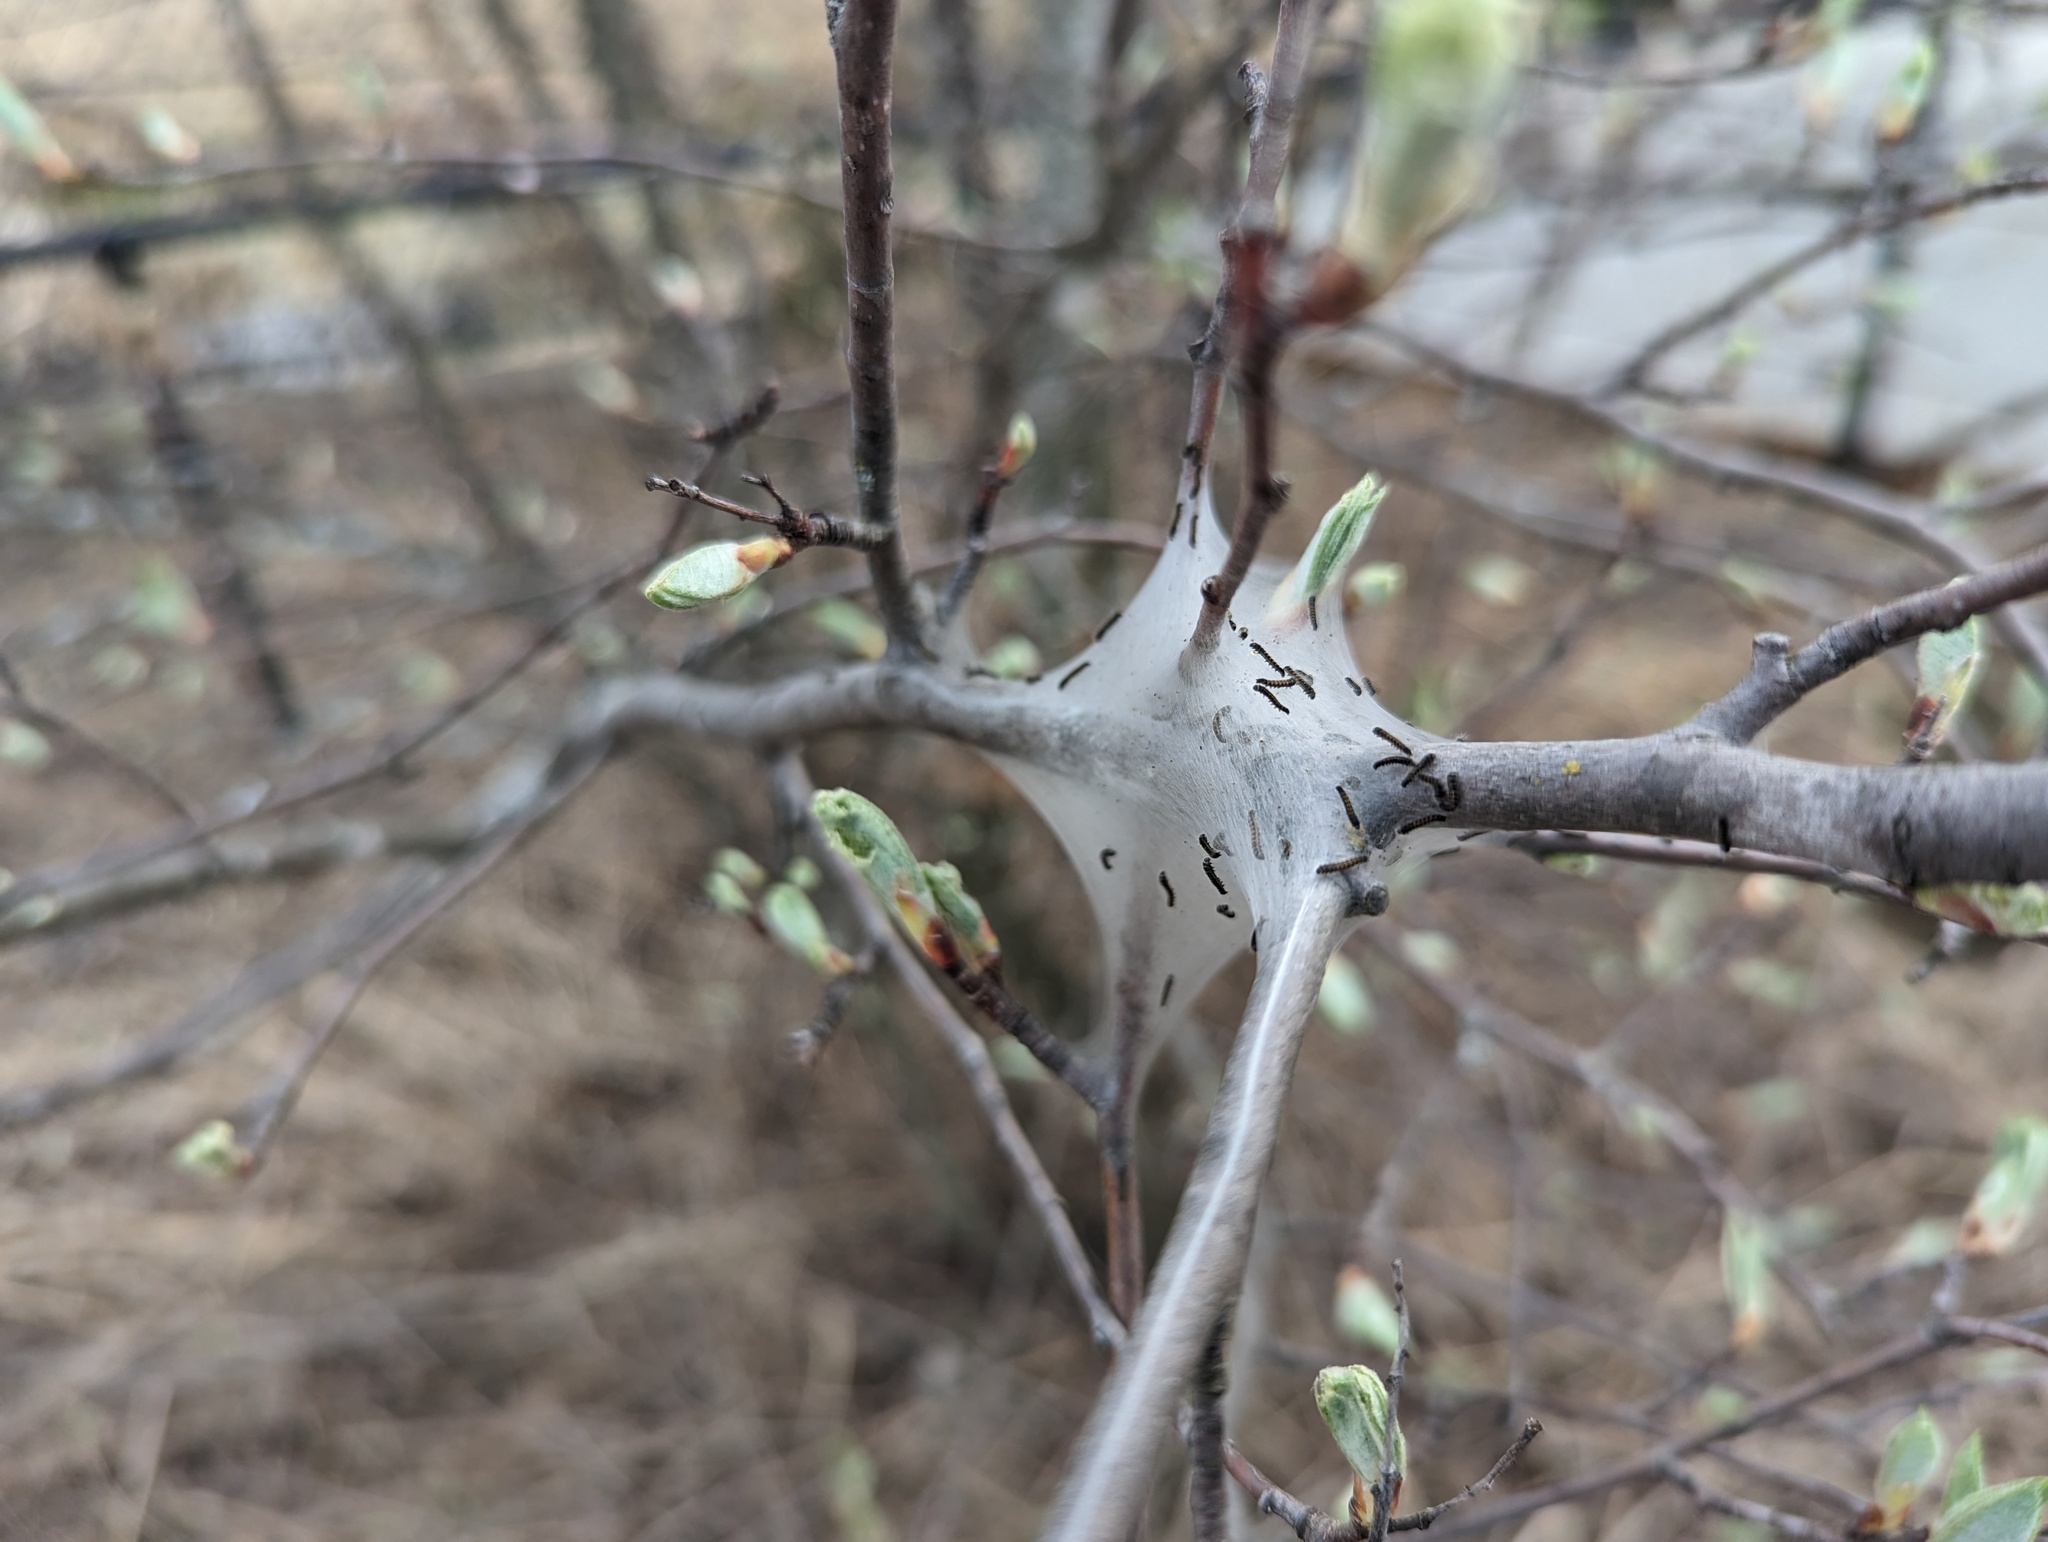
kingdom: Animalia
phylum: Arthropoda
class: Insecta
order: Lepidoptera
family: Lasiocampidae
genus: Malacosoma
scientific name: Malacosoma americana
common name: Eastern tent caterpillar moth
